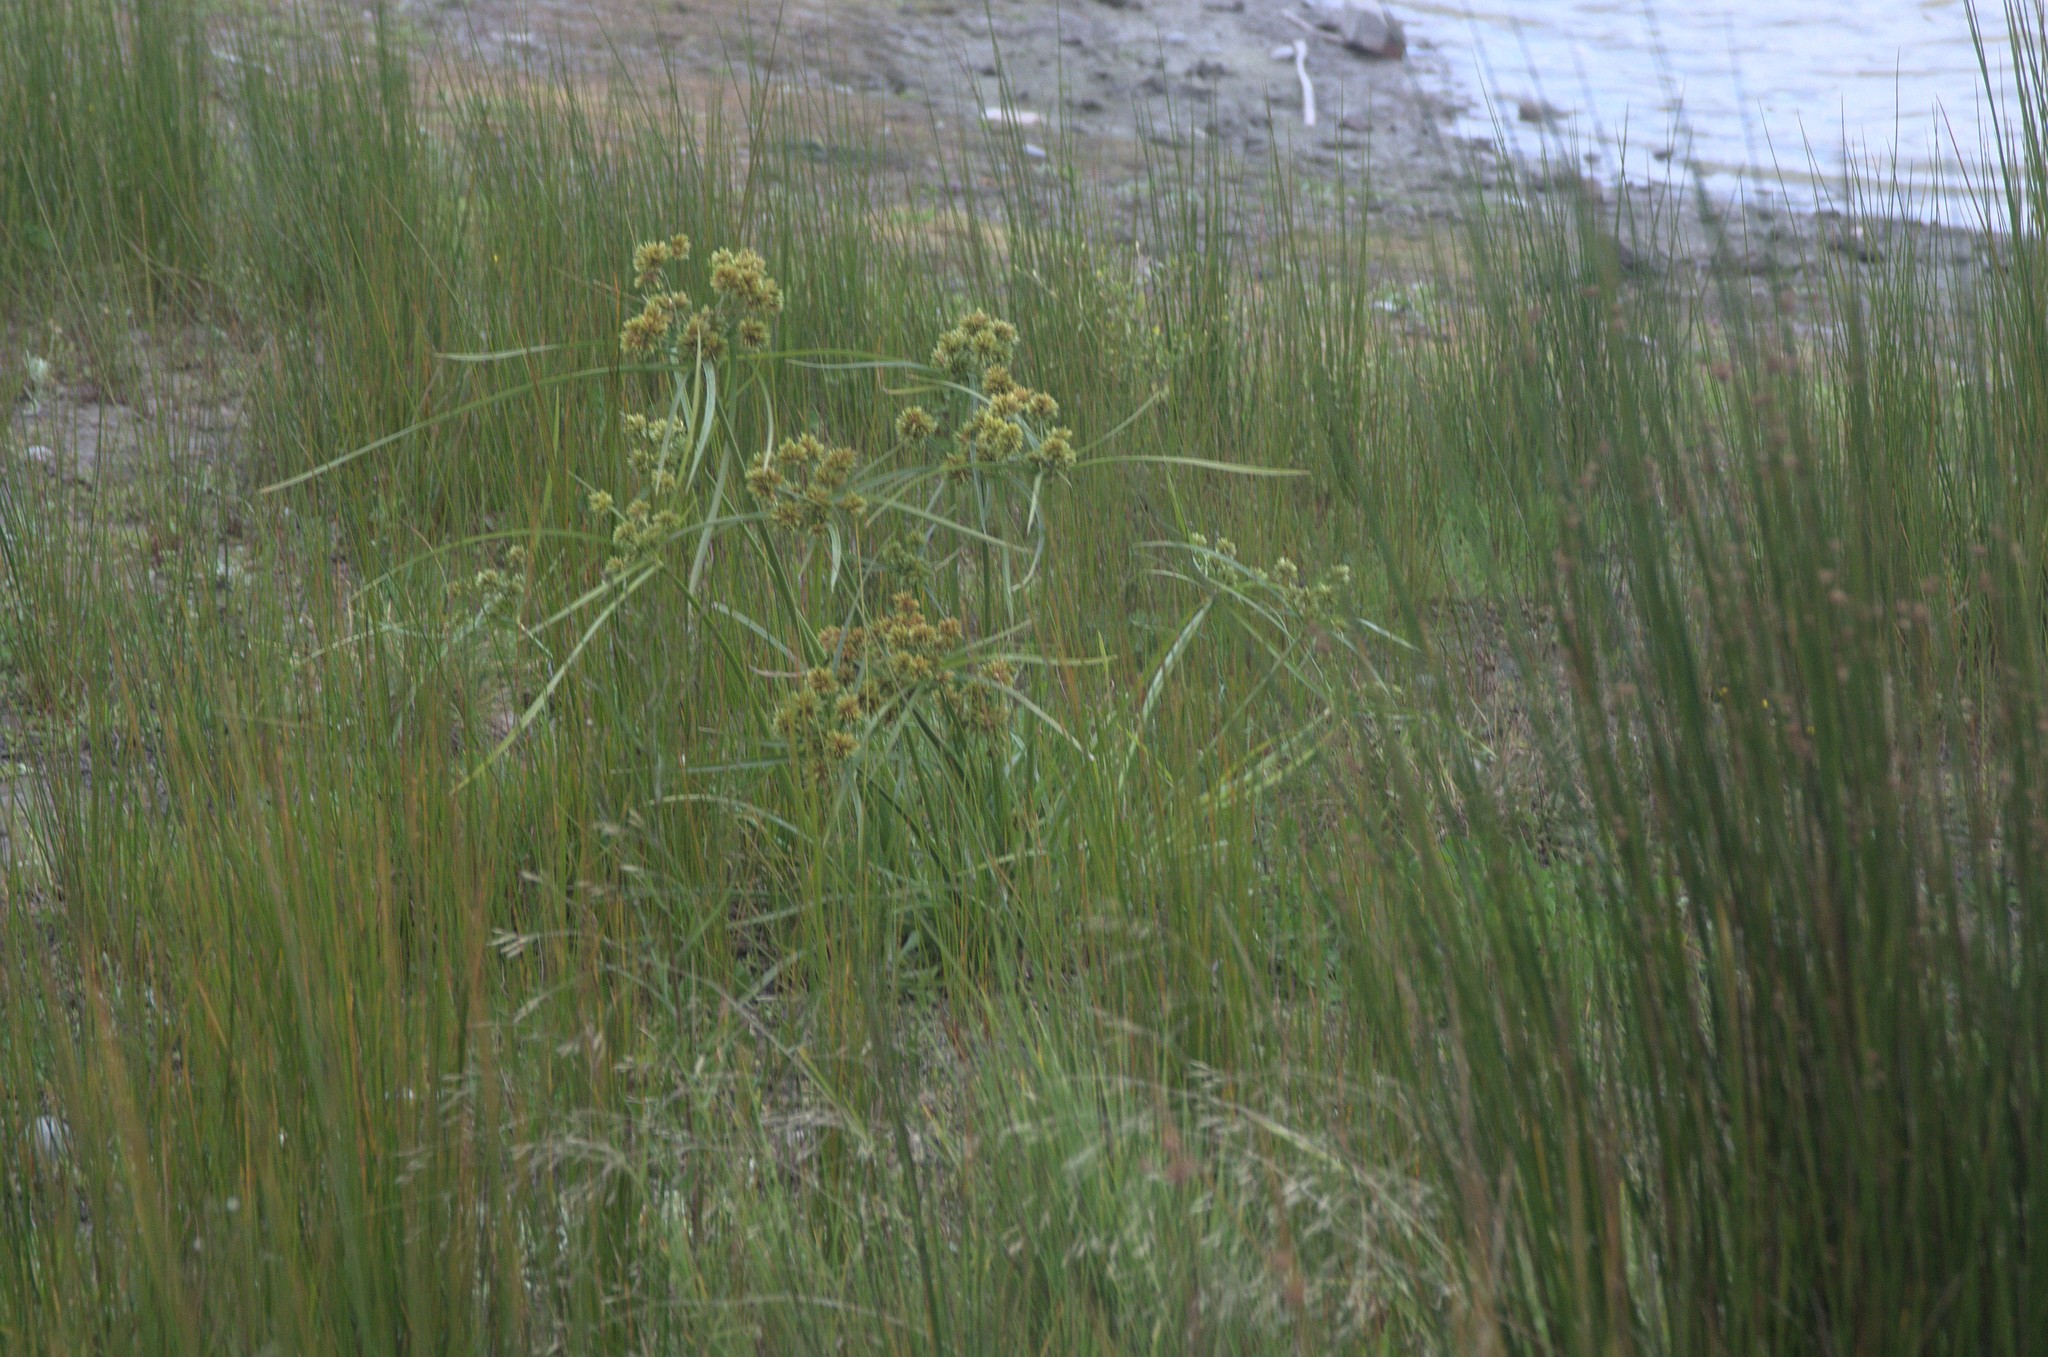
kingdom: Plantae
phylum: Tracheophyta
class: Liliopsida
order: Poales
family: Cyperaceae
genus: Cyperus
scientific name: Cyperus eragrostis
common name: Tall flatsedge
